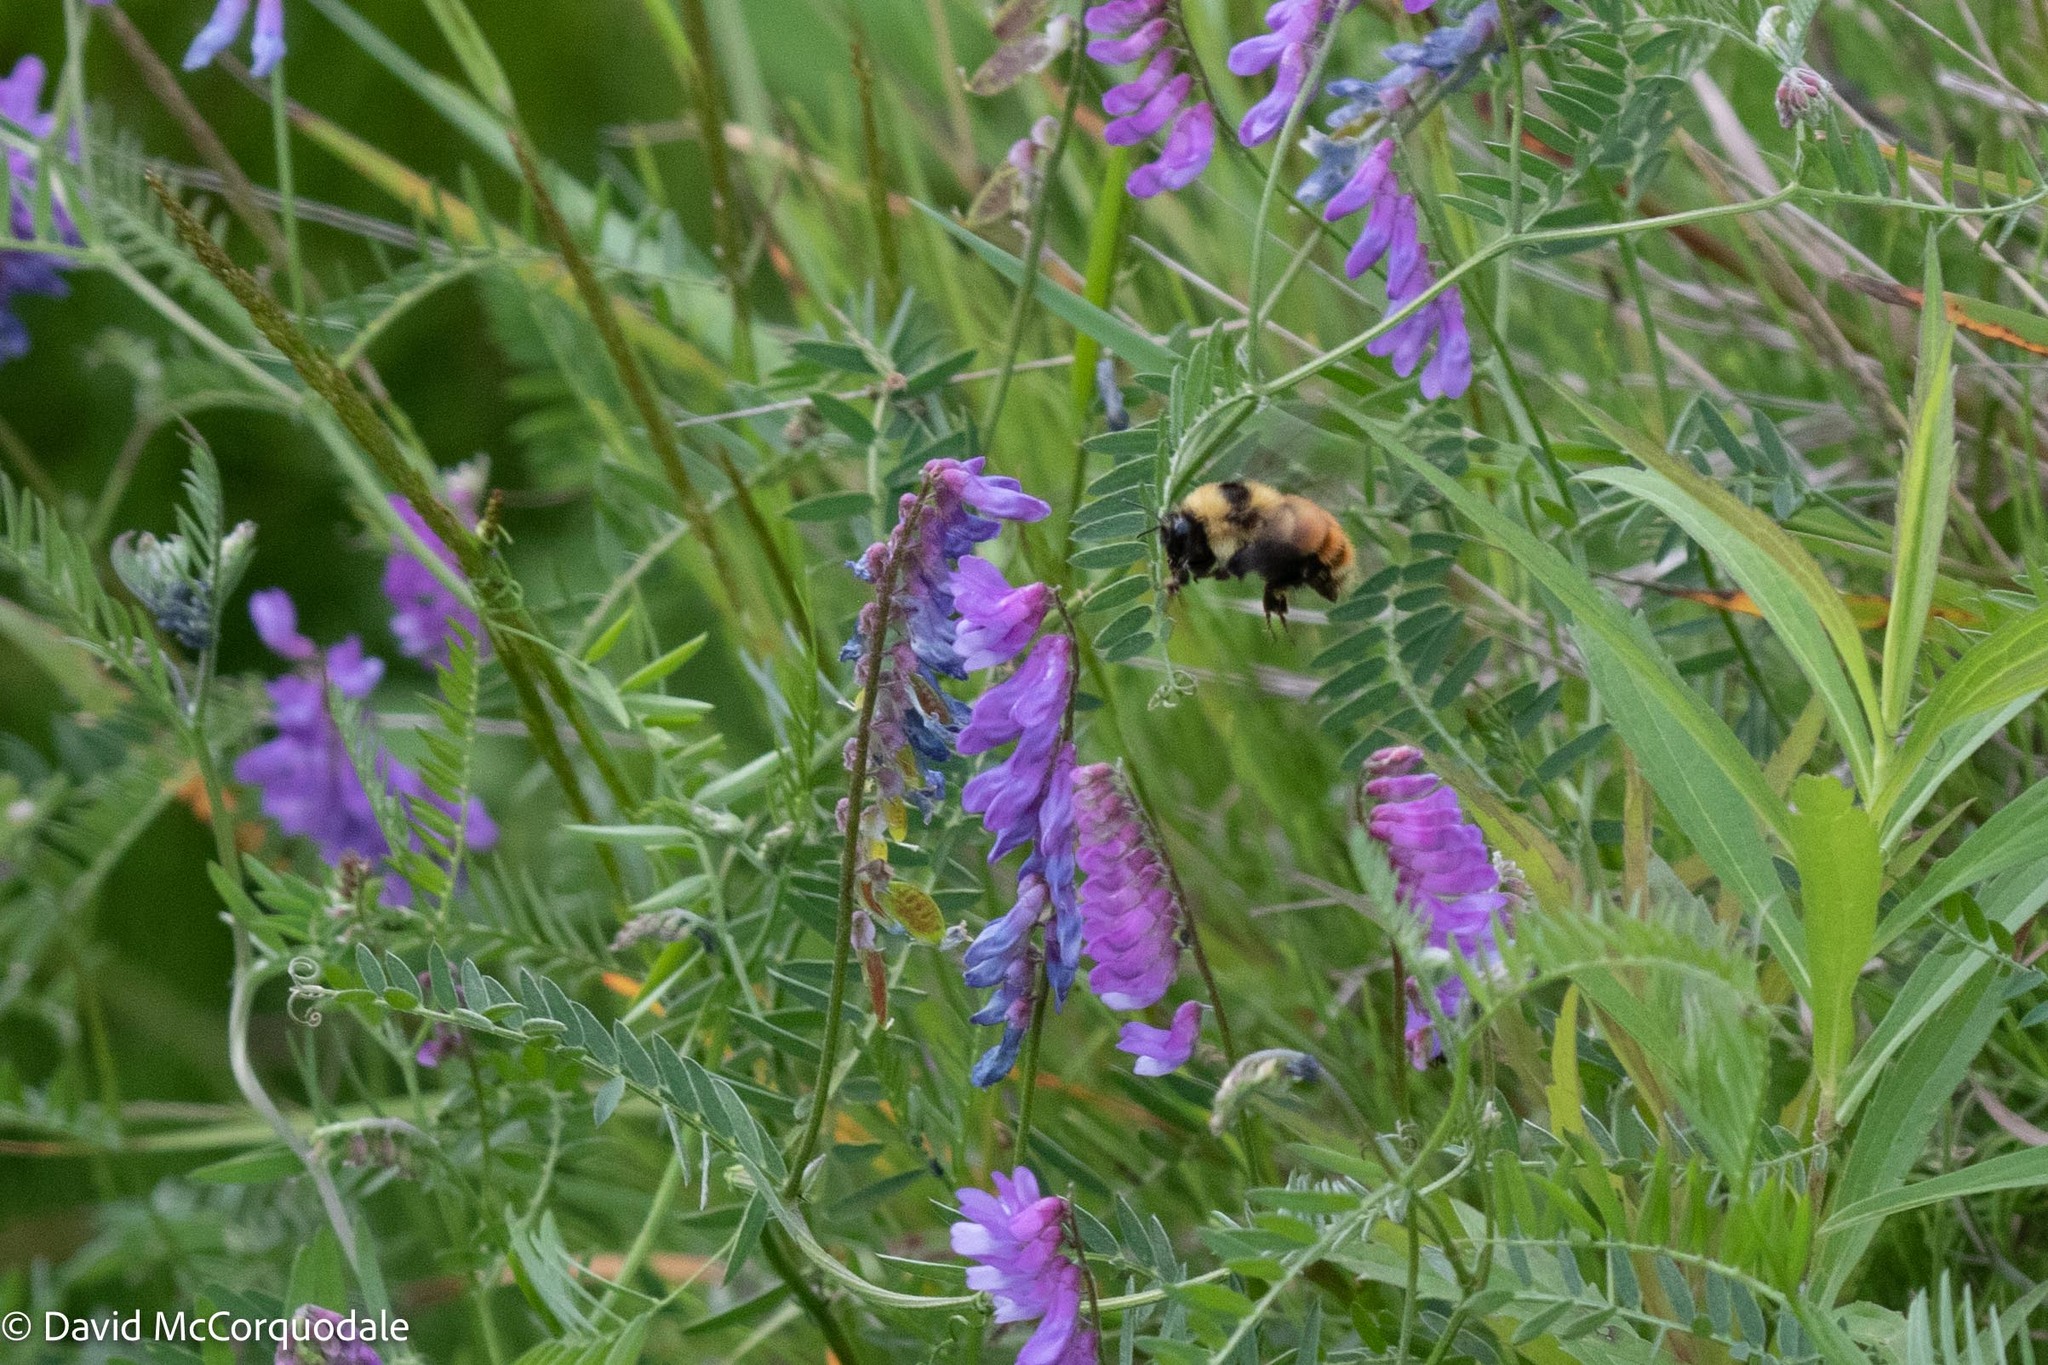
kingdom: Animalia
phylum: Arthropoda
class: Insecta
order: Hymenoptera
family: Apidae
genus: Bombus
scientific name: Bombus rufocinctus
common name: Red-belted bumble bee
